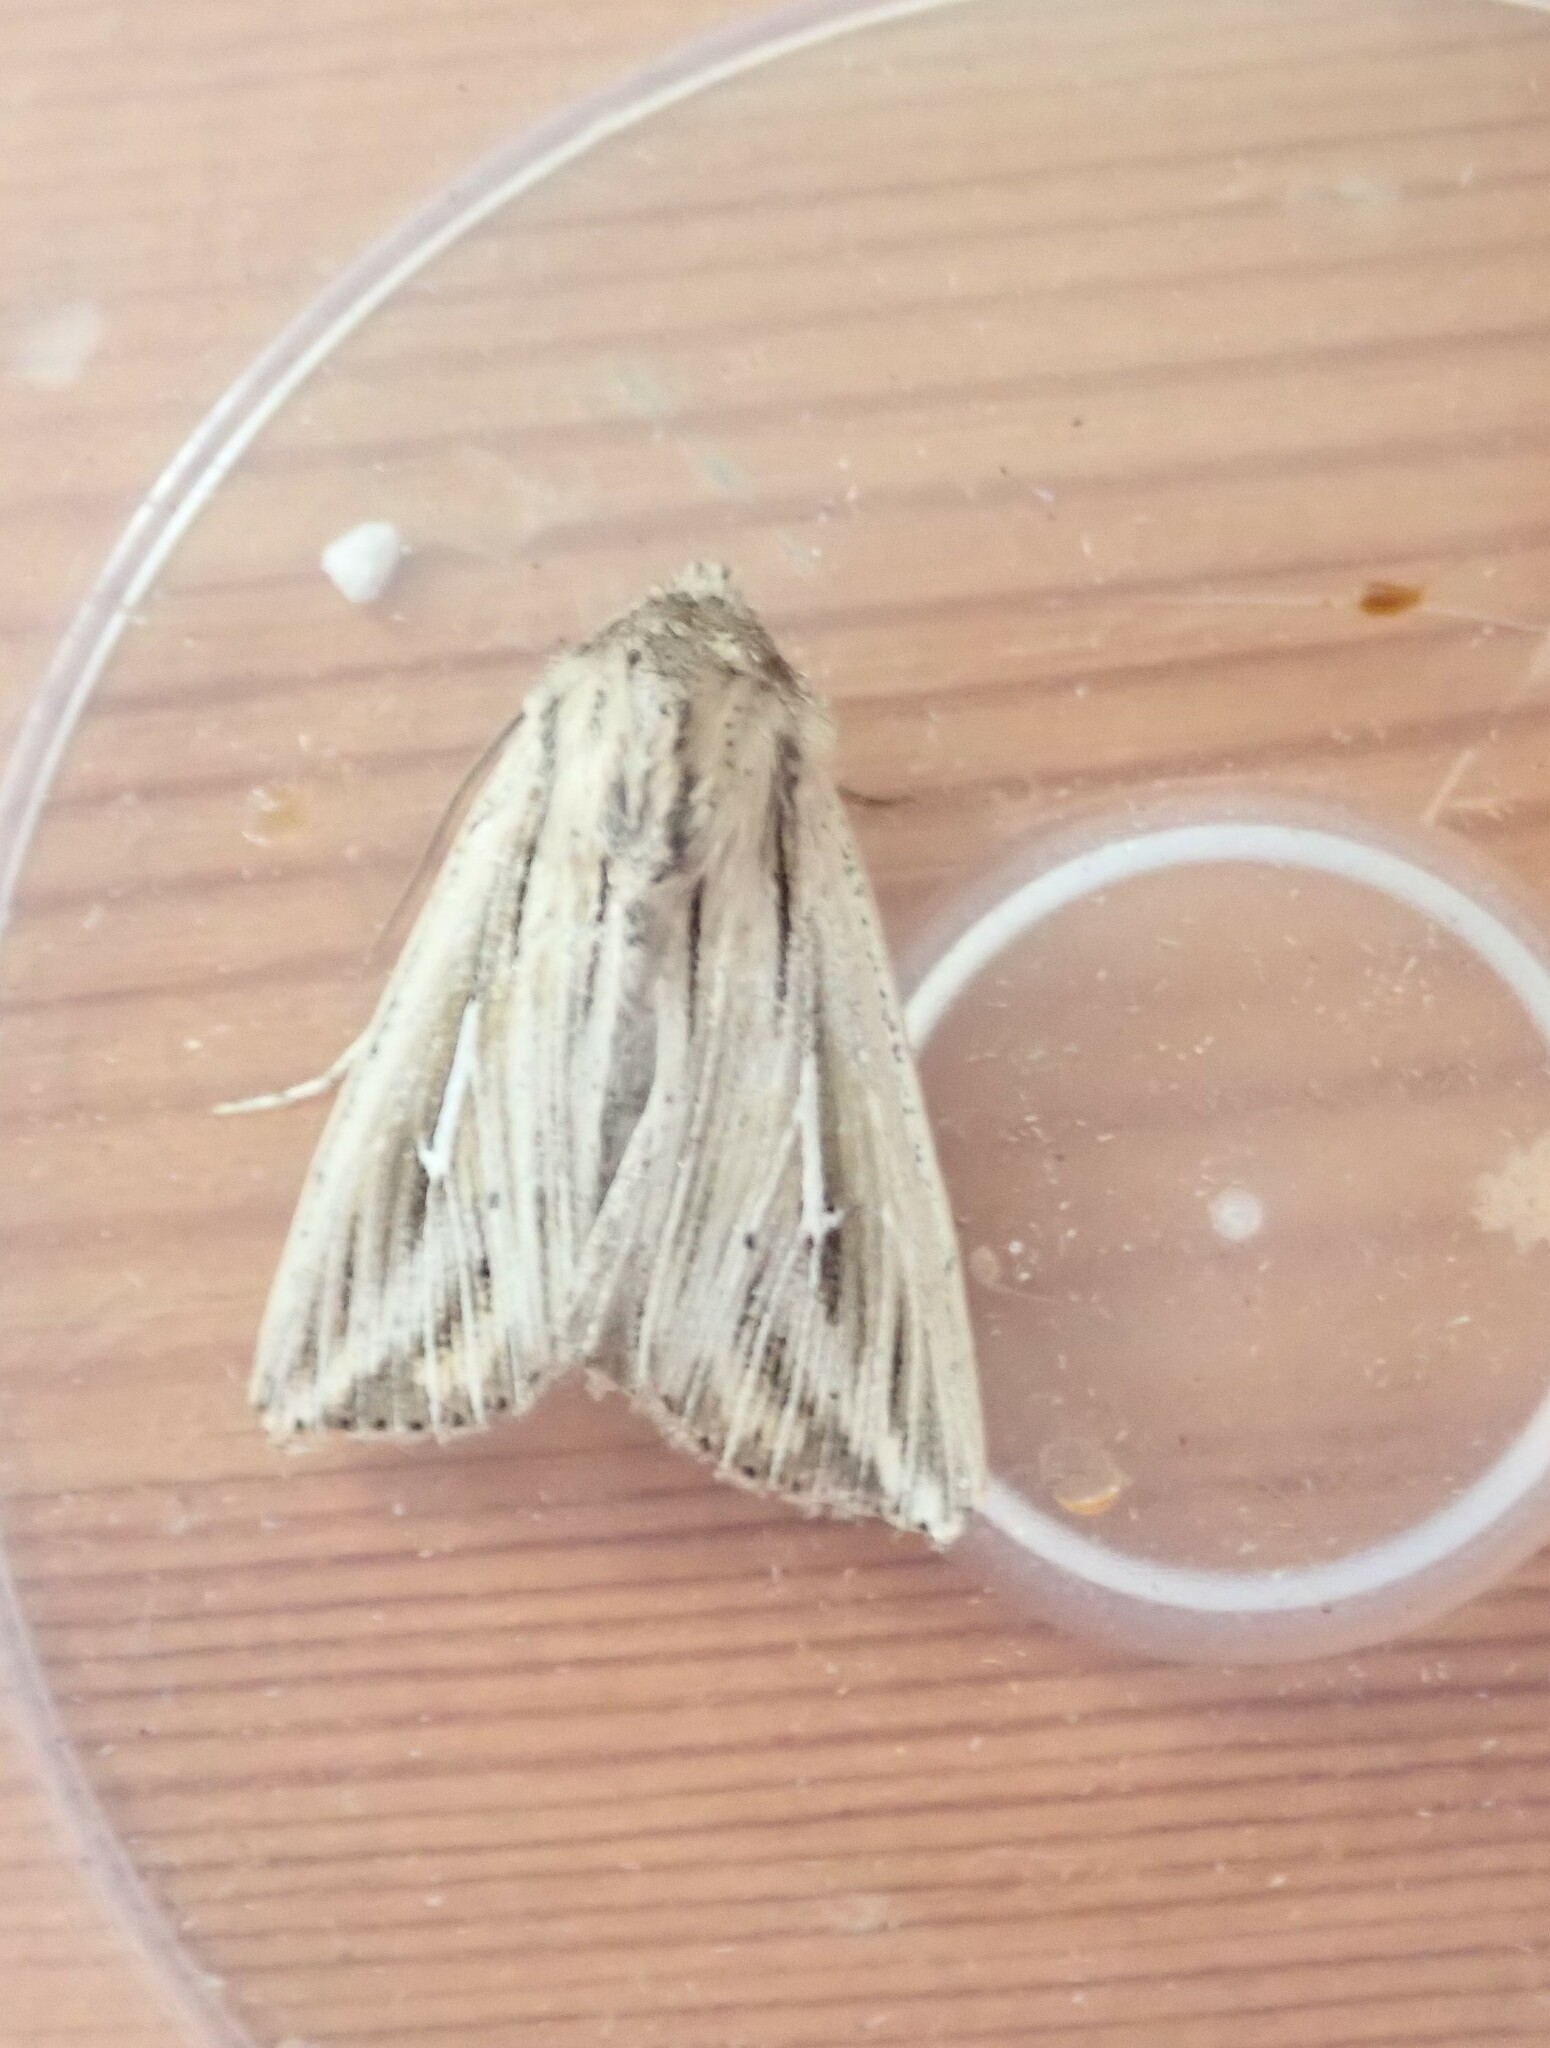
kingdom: Animalia
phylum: Arthropoda
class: Insecta
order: Lepidoptera
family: Noctuidae
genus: Mythimna
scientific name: Mythimna l-album
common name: L-album wainscot
